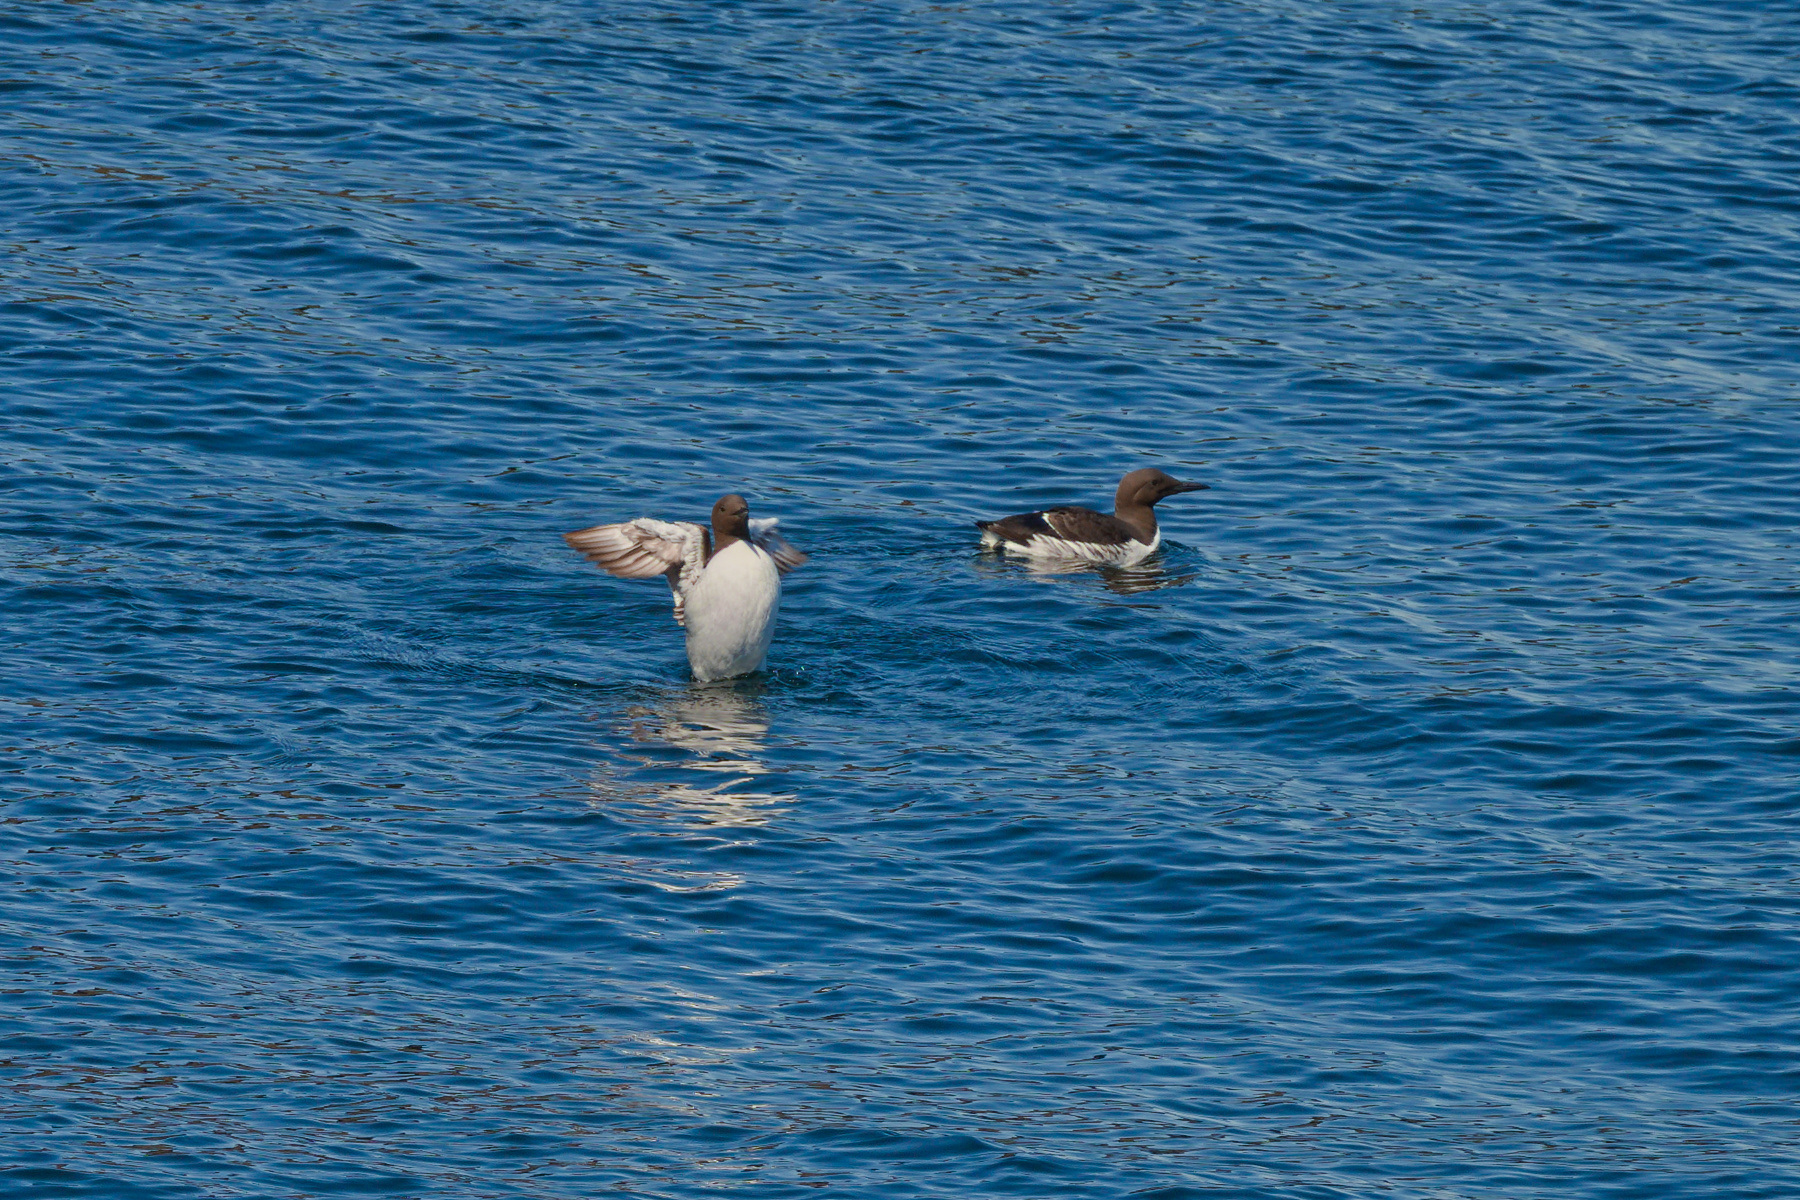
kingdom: Animalia
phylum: Chordata
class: Aves
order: Charadriiformes
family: Alcidae
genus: Uria
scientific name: Uria aalge
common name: Common murre
